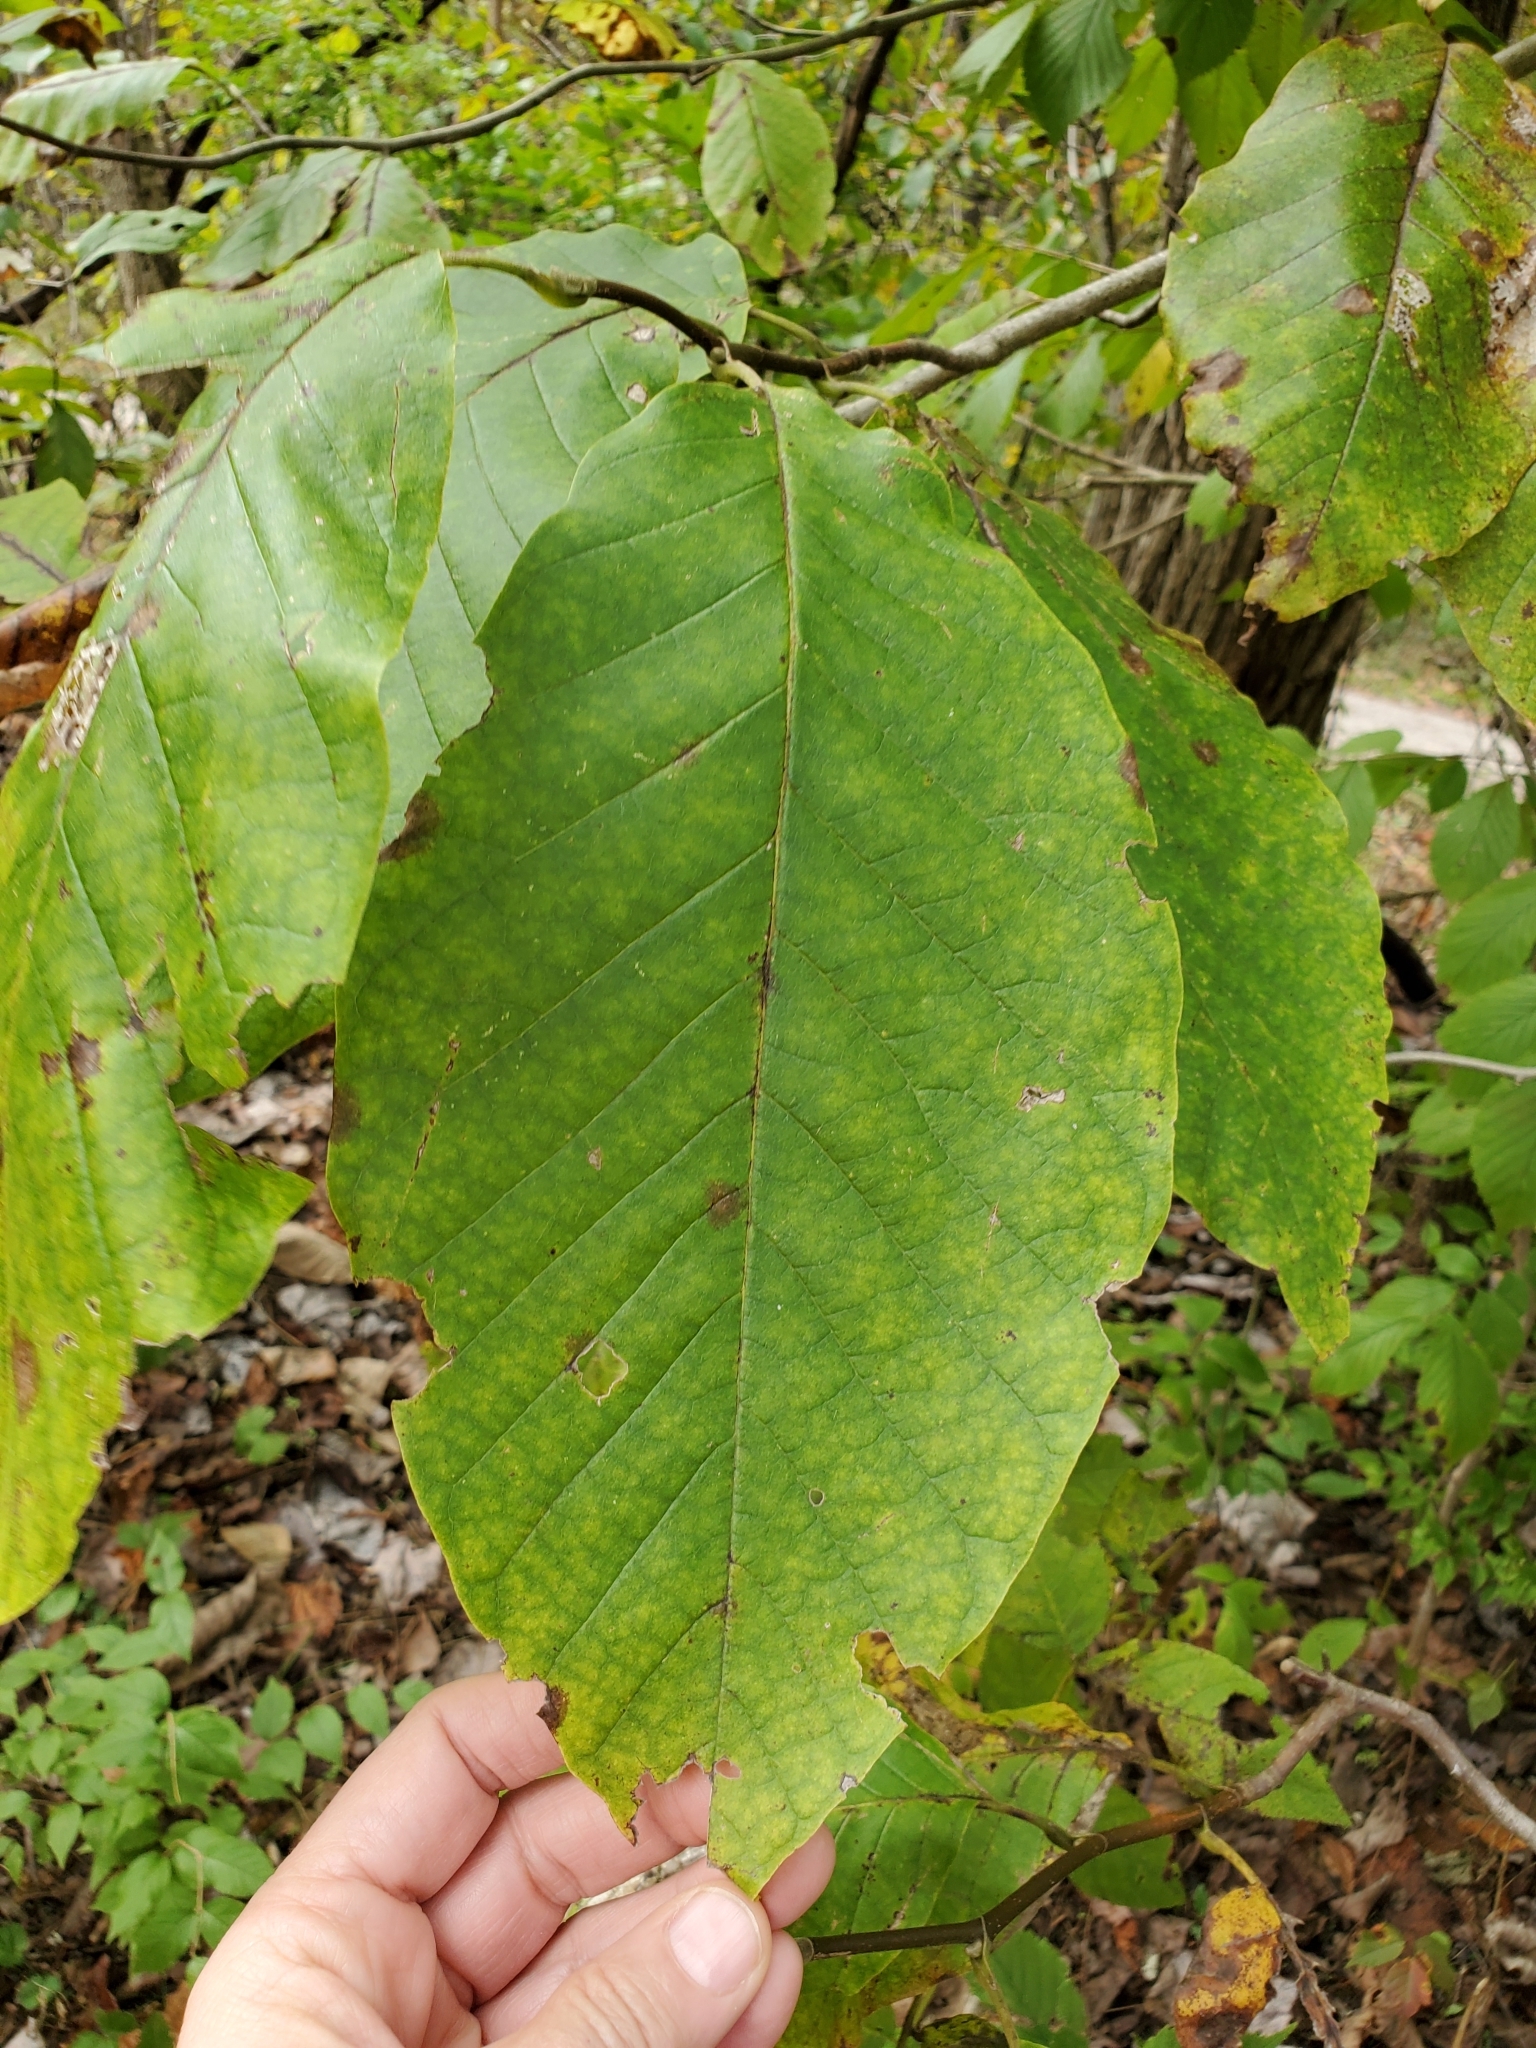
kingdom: Plantae
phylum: Tracheophyta
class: Magnoliopsida
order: Magnoliales
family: Magnoliaceae
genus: Magnolia
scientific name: Magnolia acuminata
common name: Cucumber magnolia
